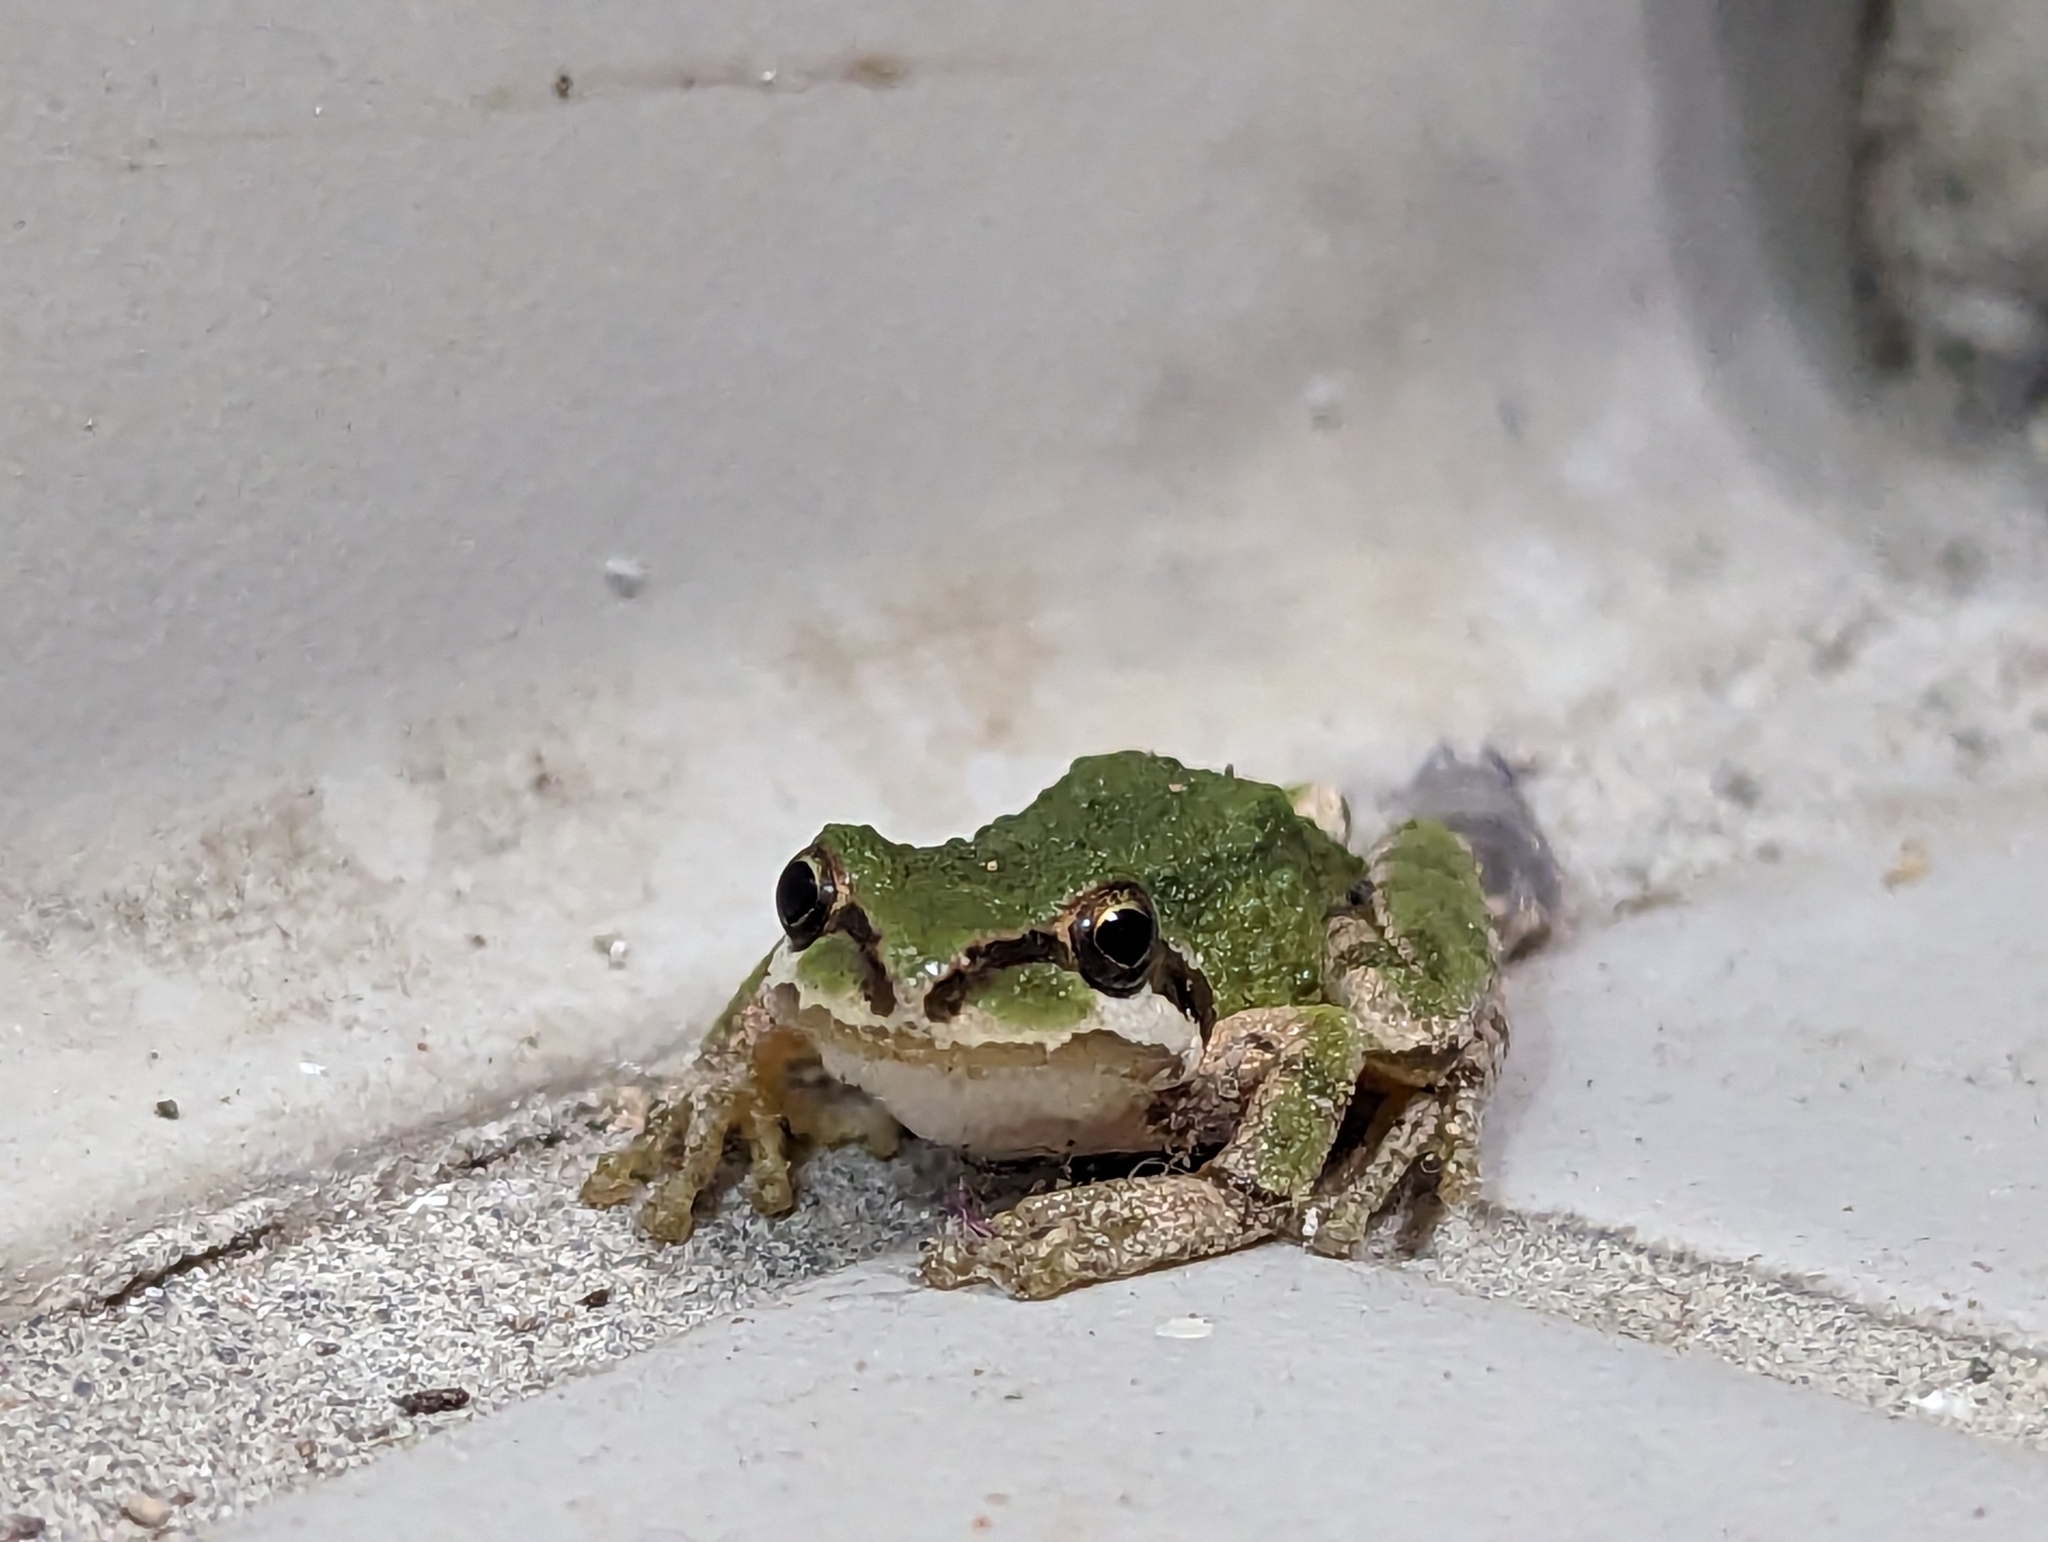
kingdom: Animalia
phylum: Chordata
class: Amphibia
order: Anura
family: Hylidae
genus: Pseudacris
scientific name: Pseudacris regilla
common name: Pacific chorus frog
